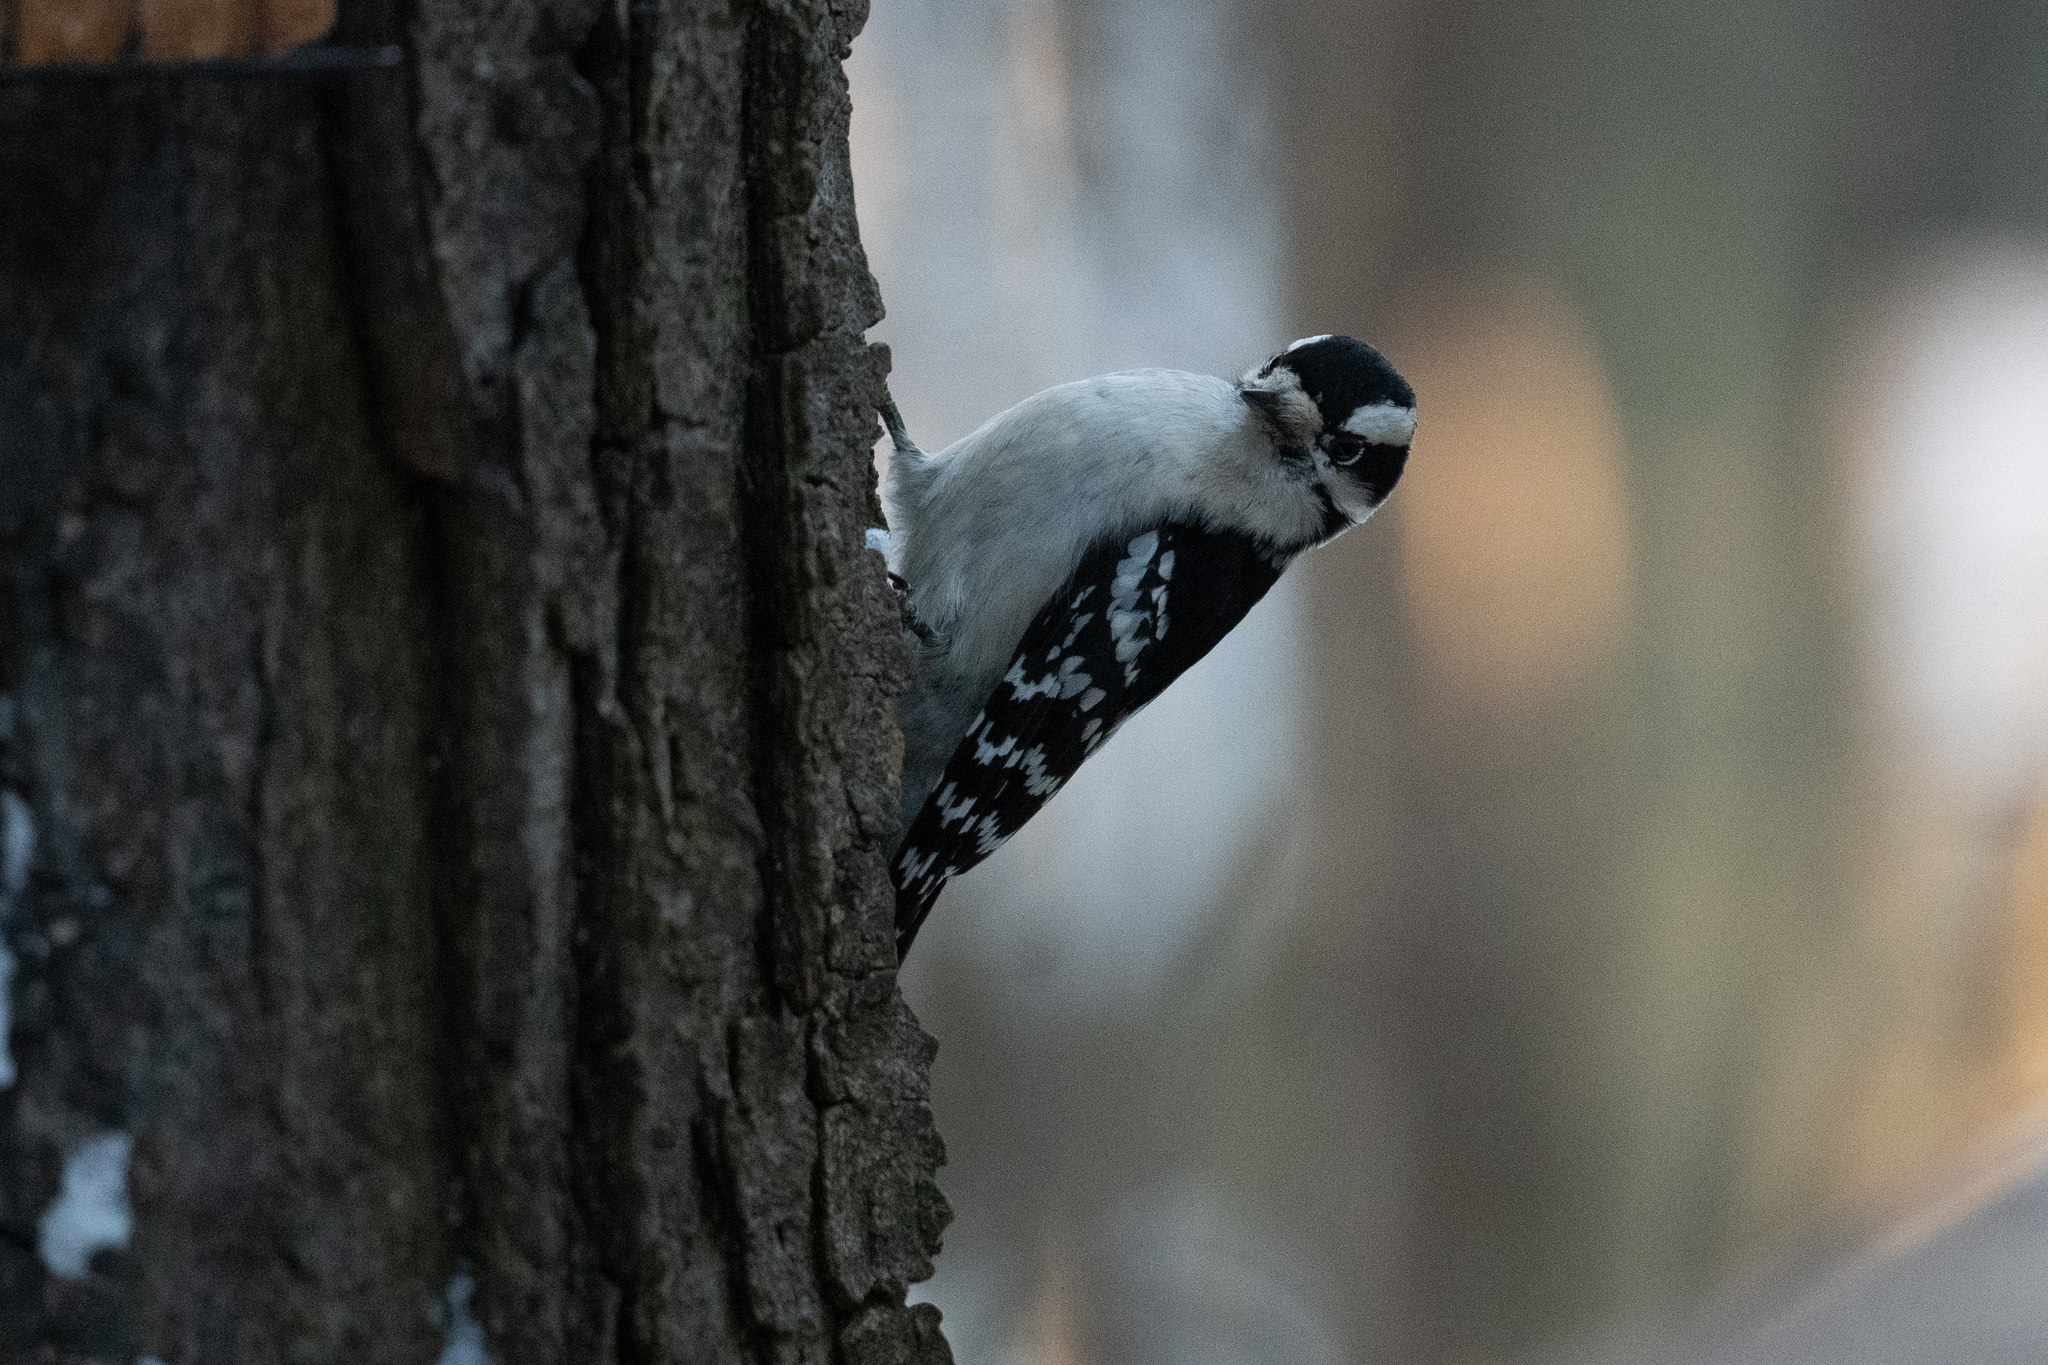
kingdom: Animalia
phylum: Chordata
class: Aves
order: Piciformes
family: Picidae
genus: Dryobates
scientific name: Dryobates pubescens
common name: Downy woodpecker
